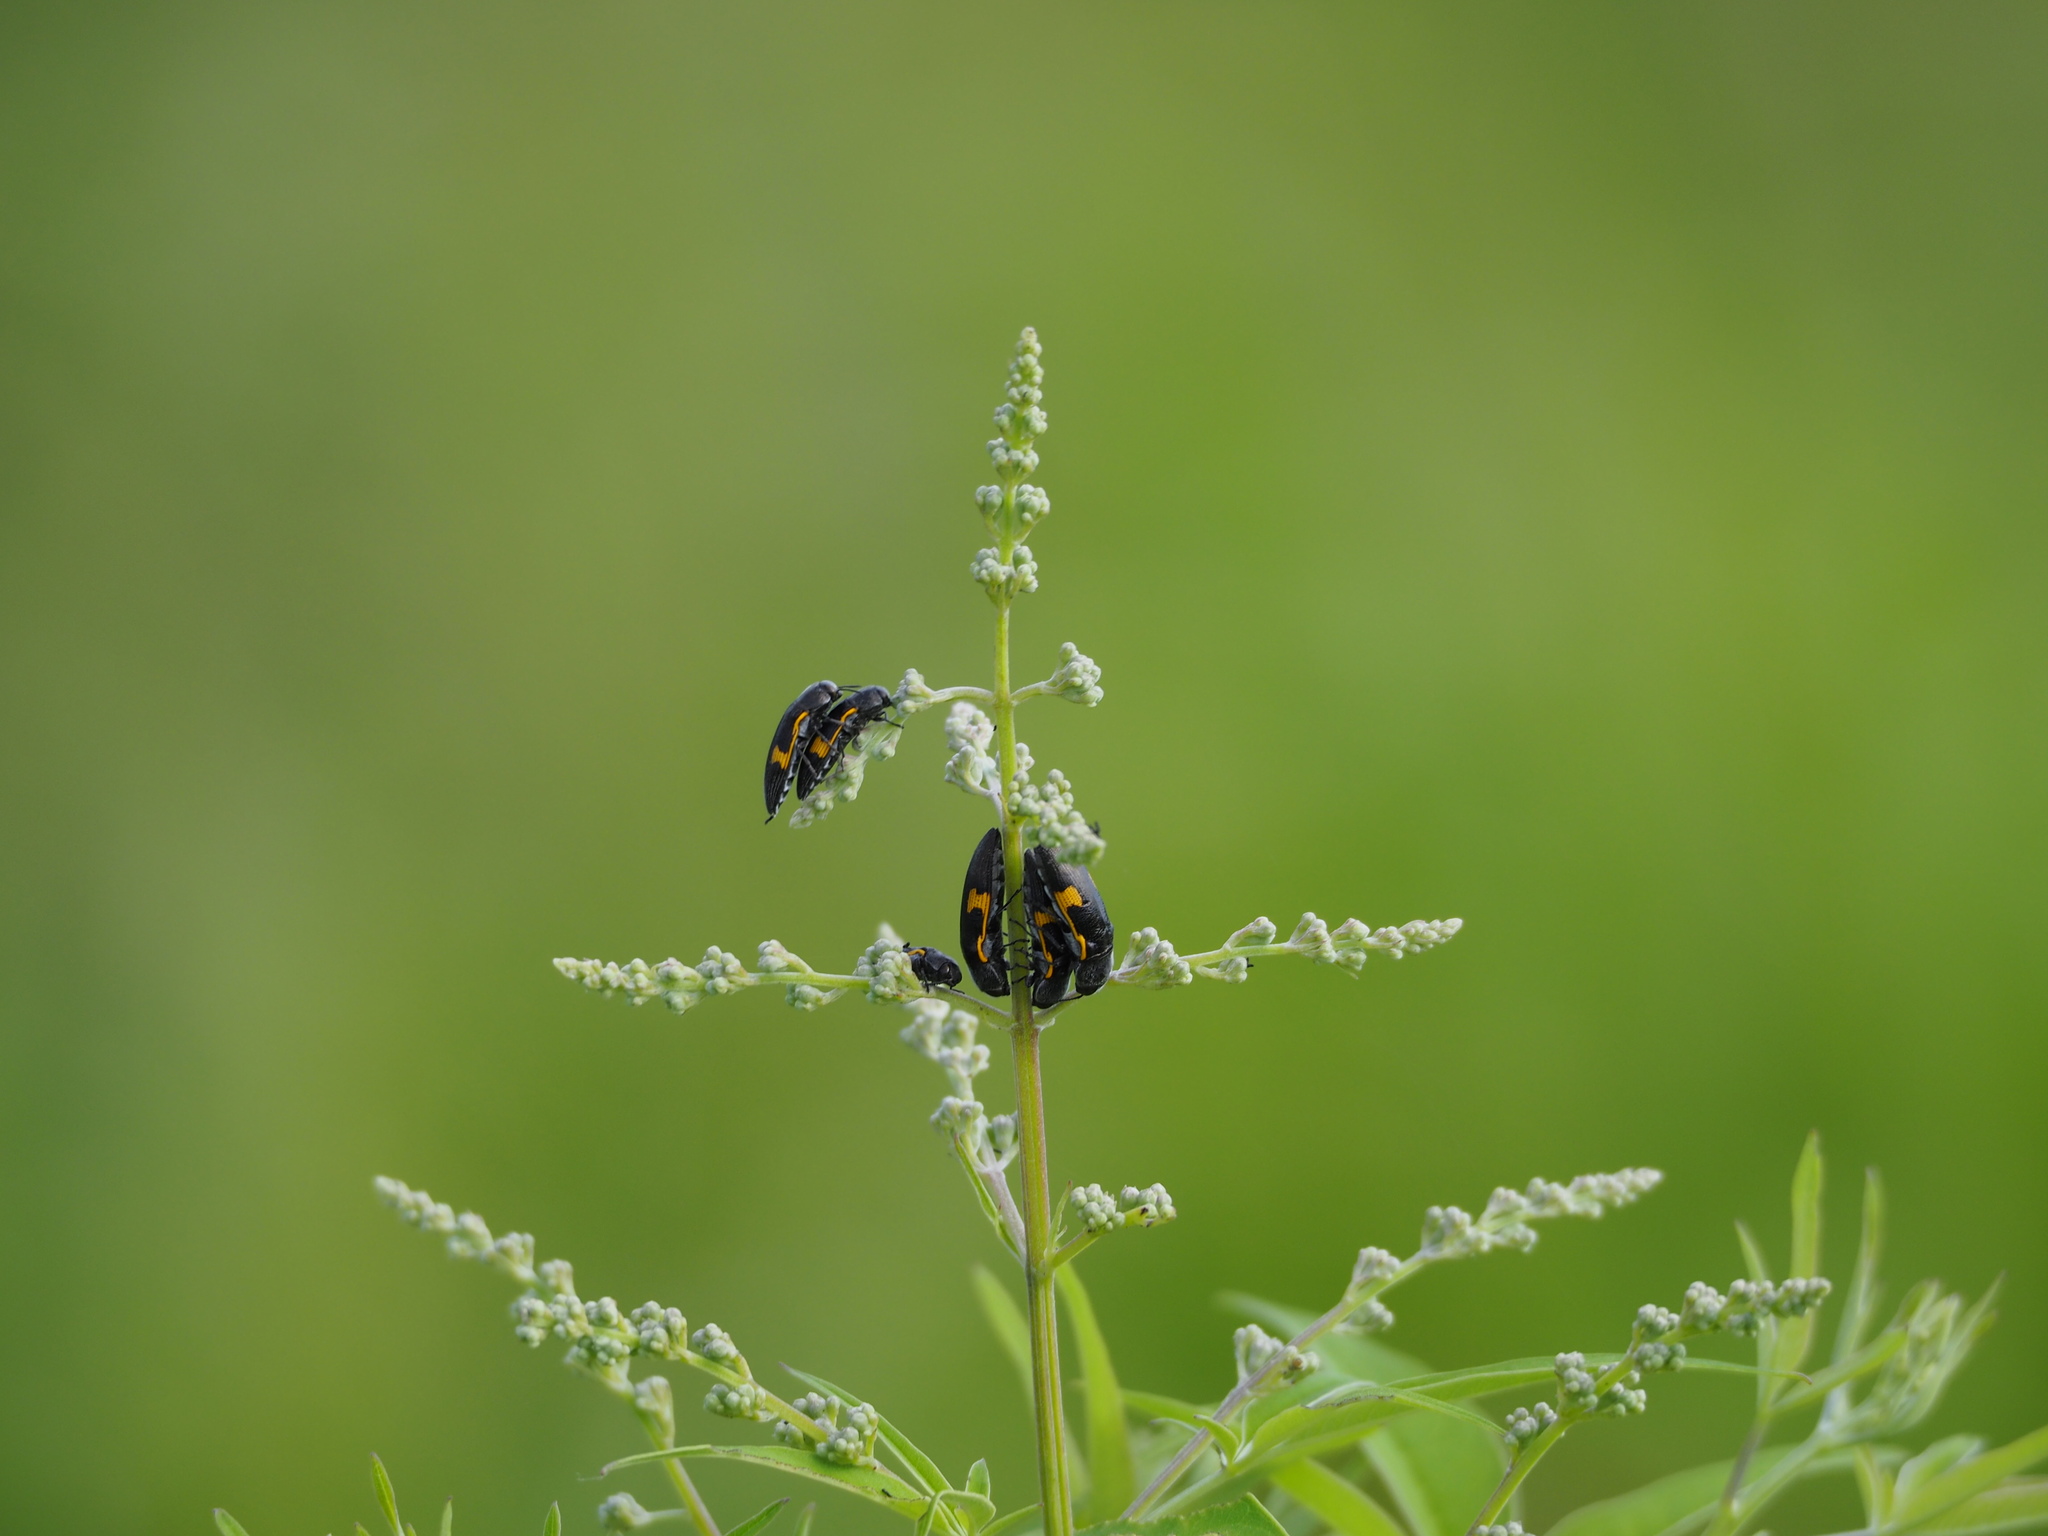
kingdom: Animalia
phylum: Arthropoda
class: Insecta
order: Coleoptera
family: Buprestidae
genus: Acmaeodera
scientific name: Acmaeodera luzonica
